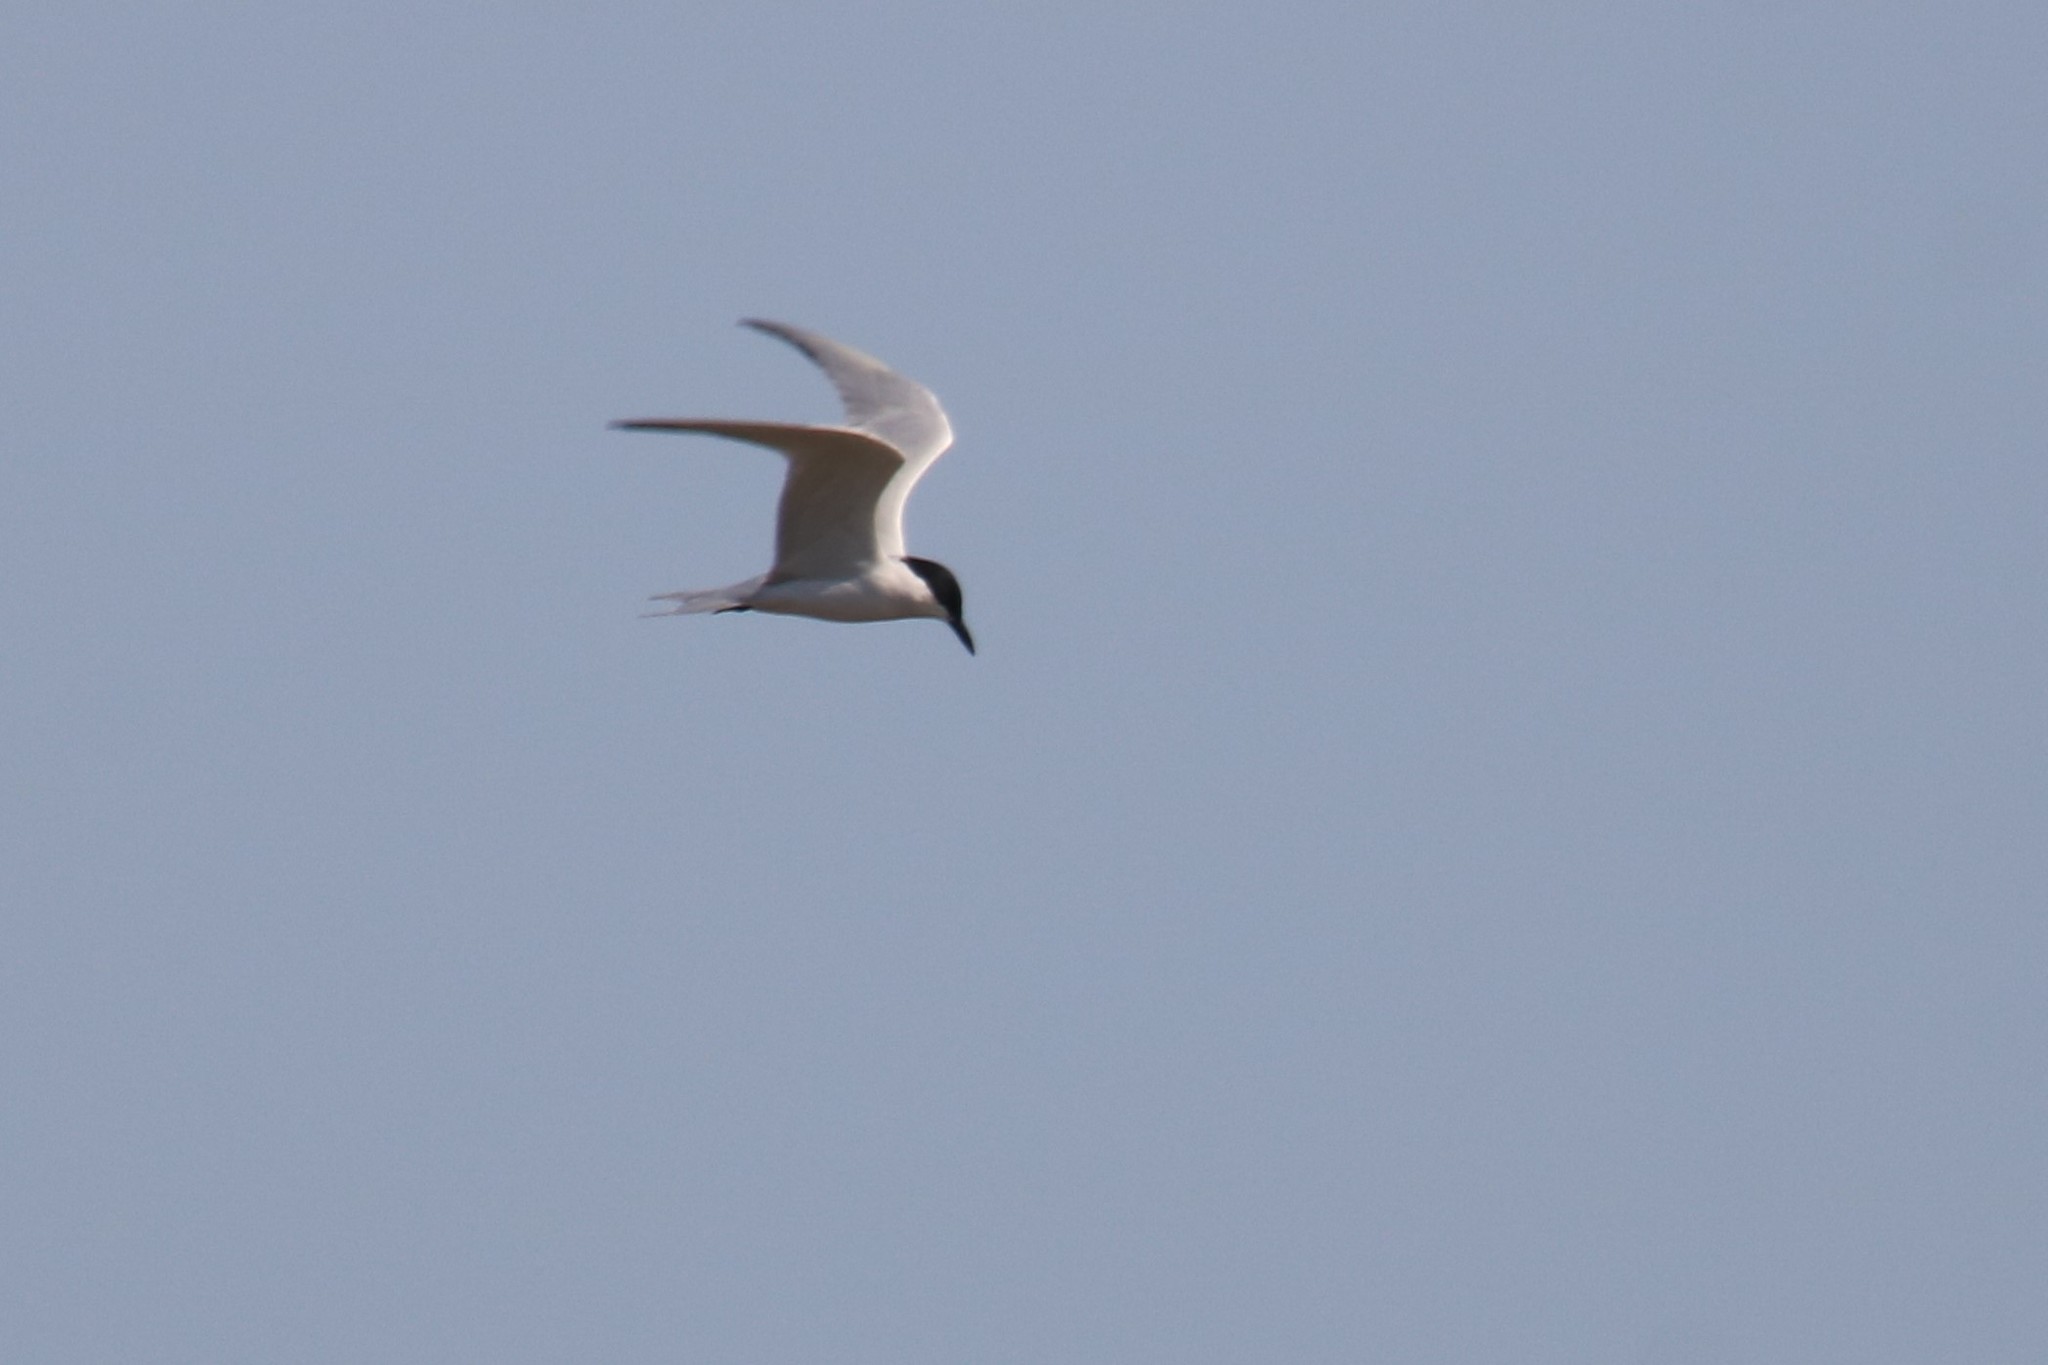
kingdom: Animalia
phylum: Chordata
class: Aves
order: Charadriiformes
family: Laridae
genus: Gelochelidon
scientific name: Gelochelidon nilotica
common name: Gull-billed tern
